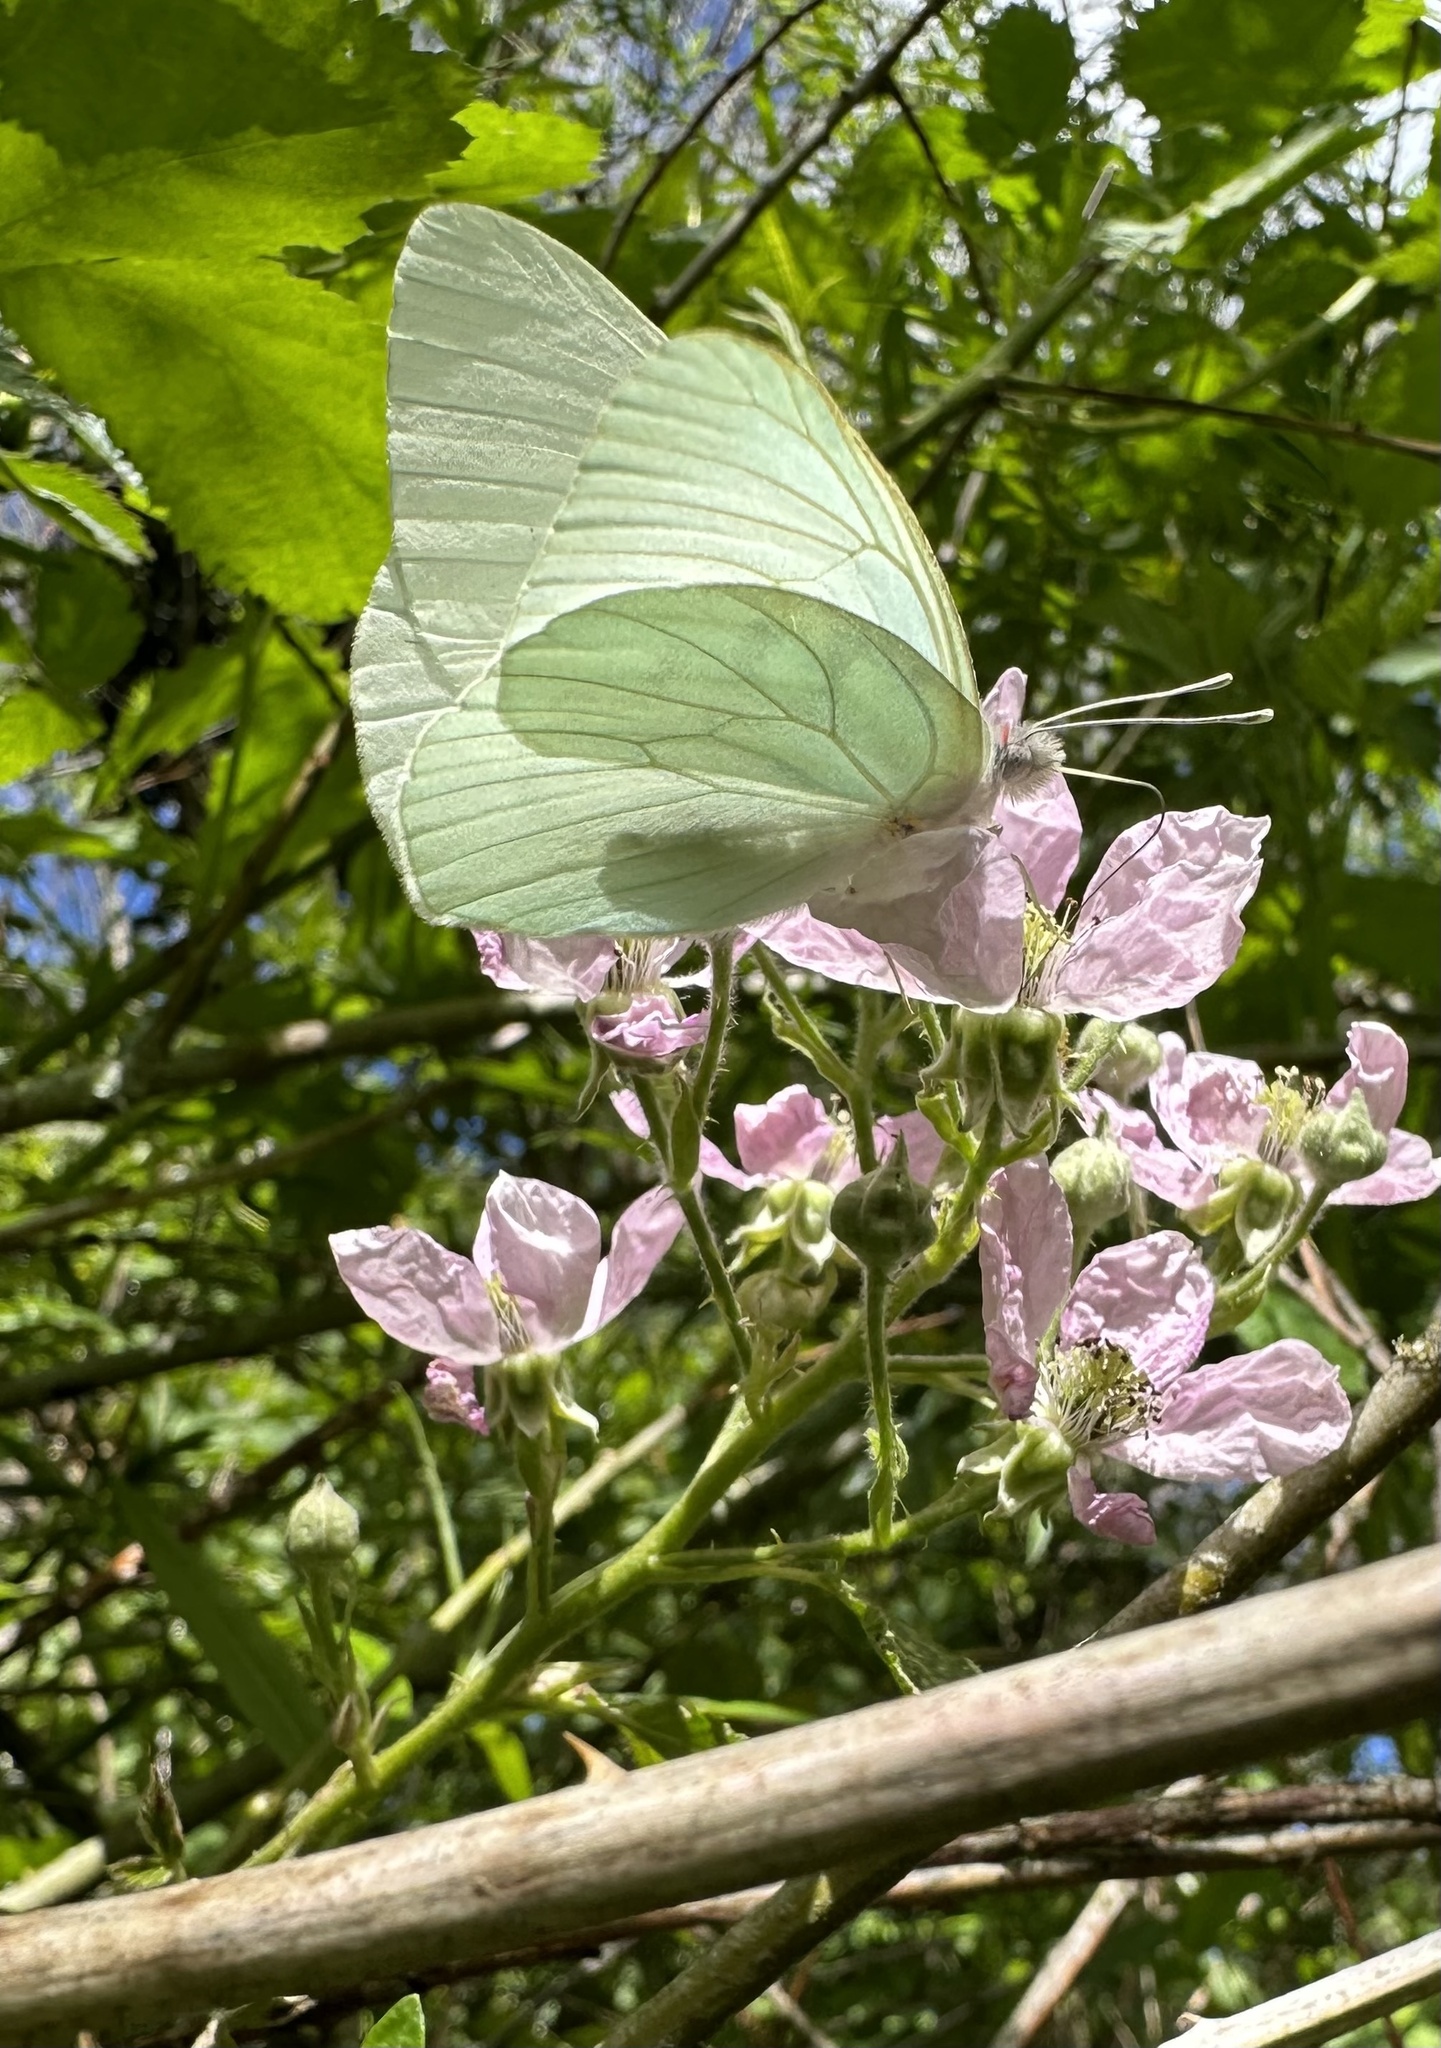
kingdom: Animalia
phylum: Arthropoda
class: Insecta
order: Lepidoptera
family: Pieridae
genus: Mathania
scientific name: Mathania leucothea
